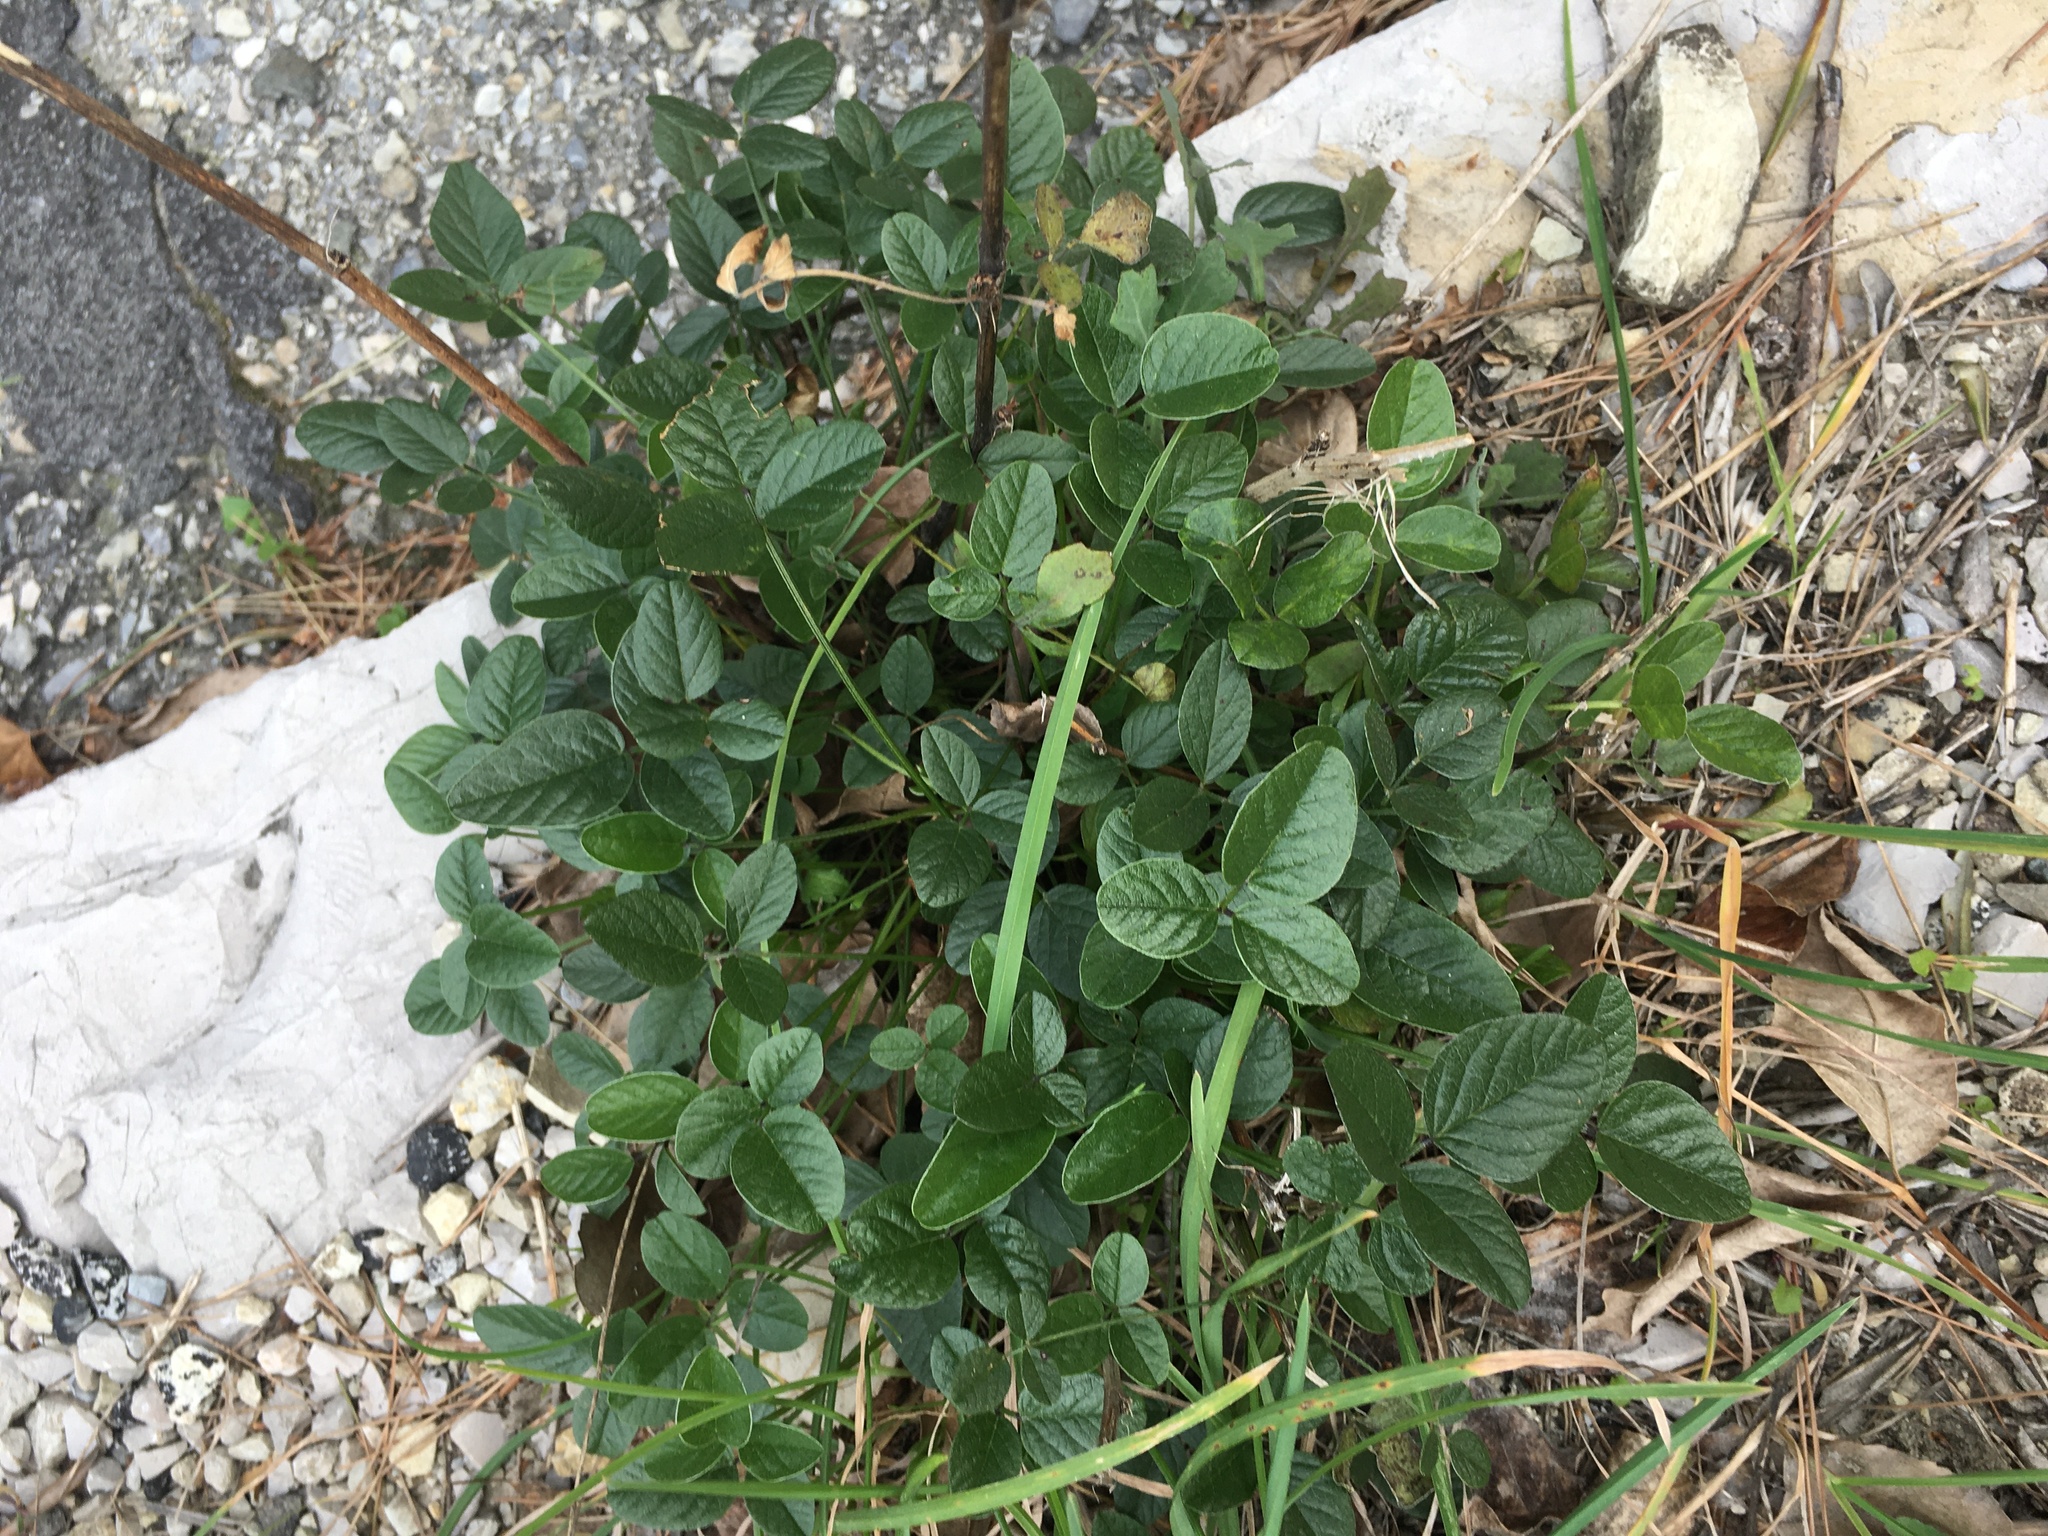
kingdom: Plantae
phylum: Tracheophyta
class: Magnoliopsida
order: Fabales
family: Fabaceae
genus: Bituminaria
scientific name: Bituminaria bituminosa
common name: Arabian pea
